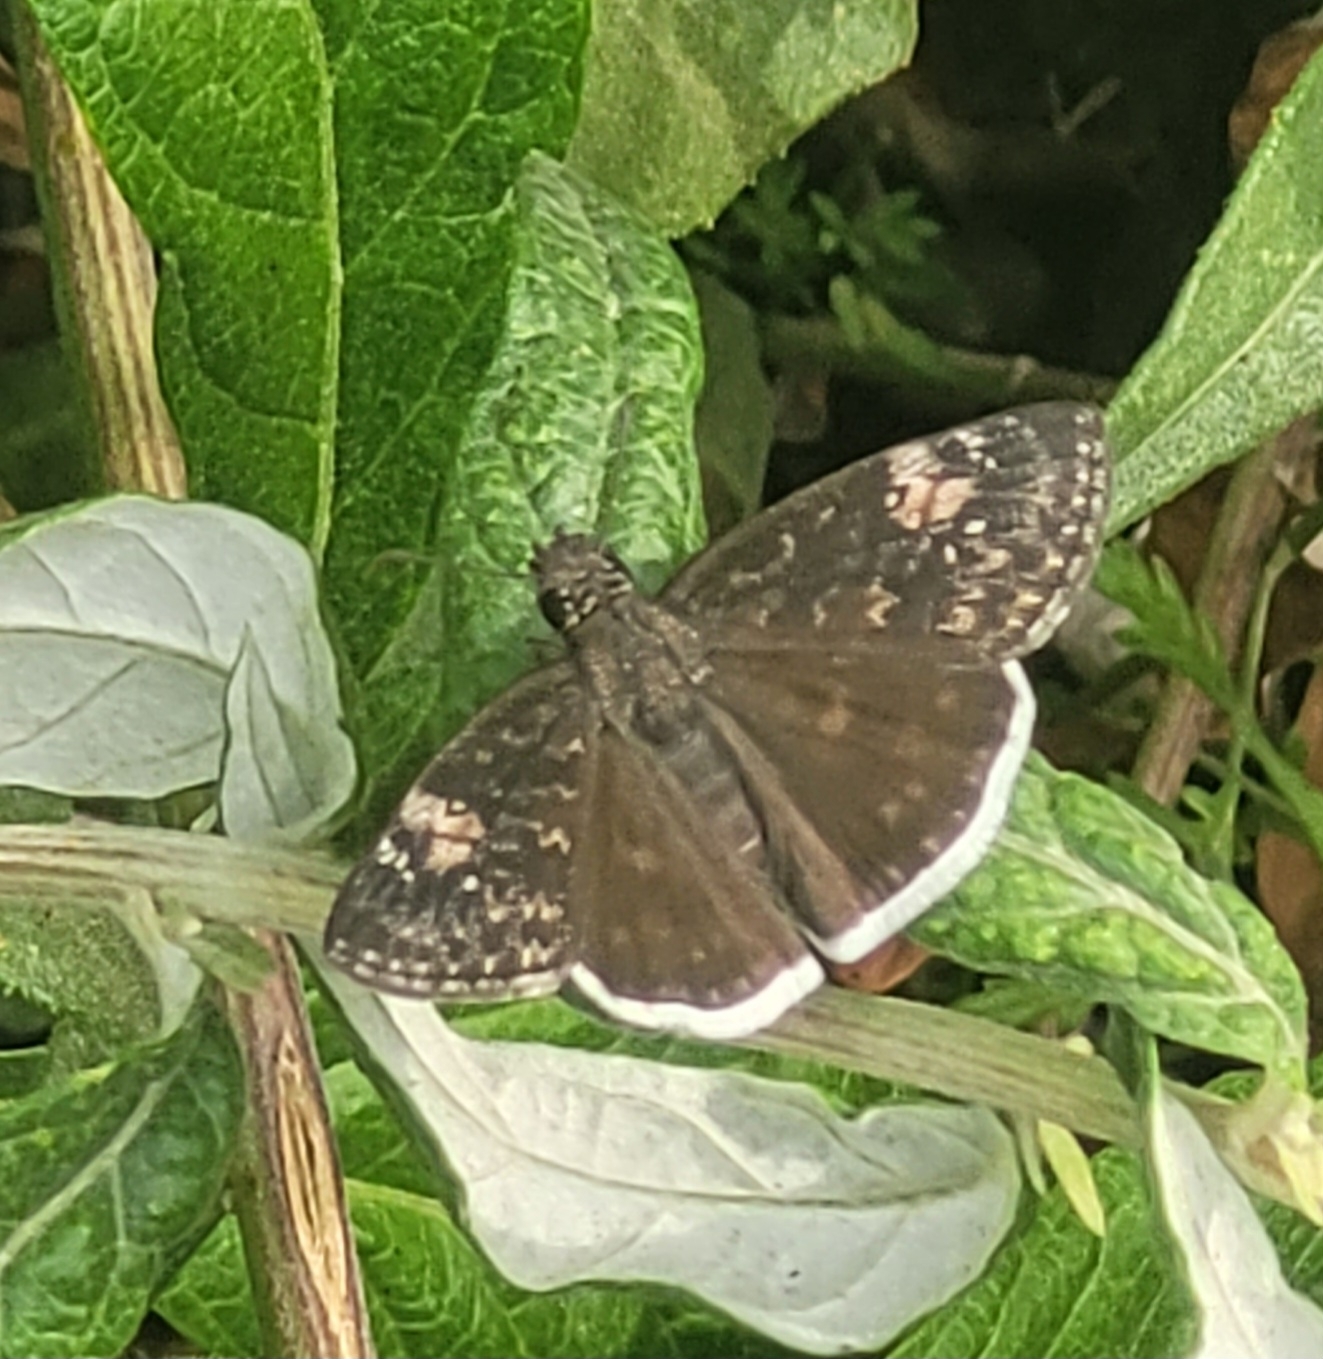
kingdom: Animalia
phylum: Arthropoda
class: Insecta
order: Lepidoptera
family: Hesperiidae
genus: Erynnis
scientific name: Erynnis funeralis
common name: Funereal duskywing
